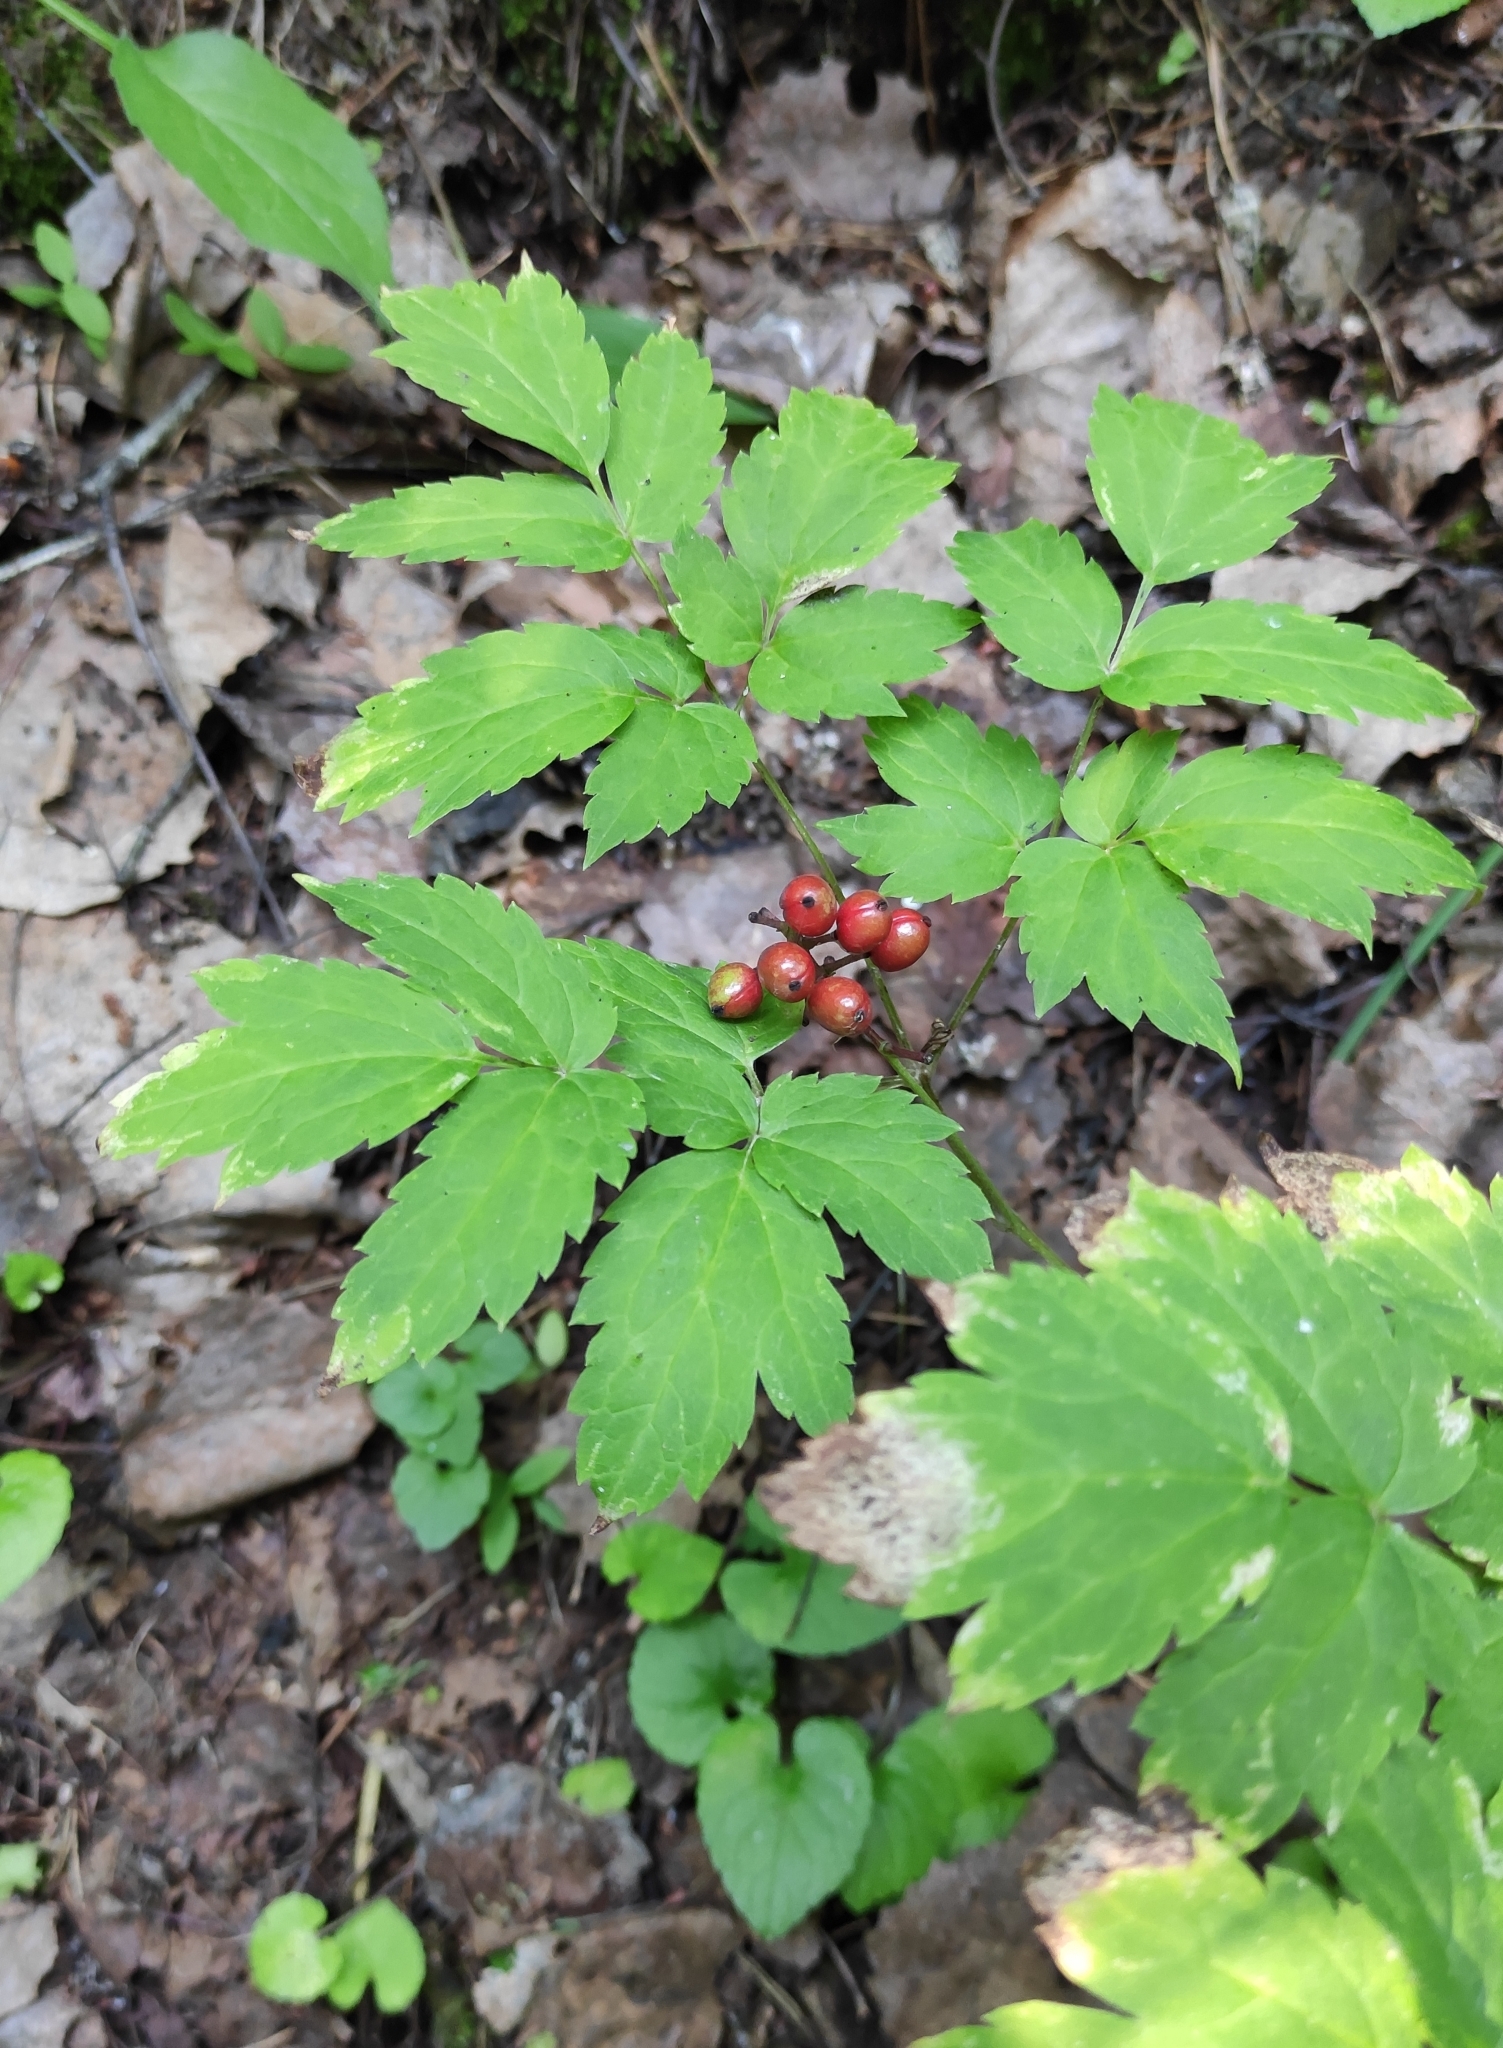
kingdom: Plantae
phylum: Tracheophyta
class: Magnoliopsida
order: Ranunculales
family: Ranunculaceae
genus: Actaea
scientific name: Actaea erythrocarpa
